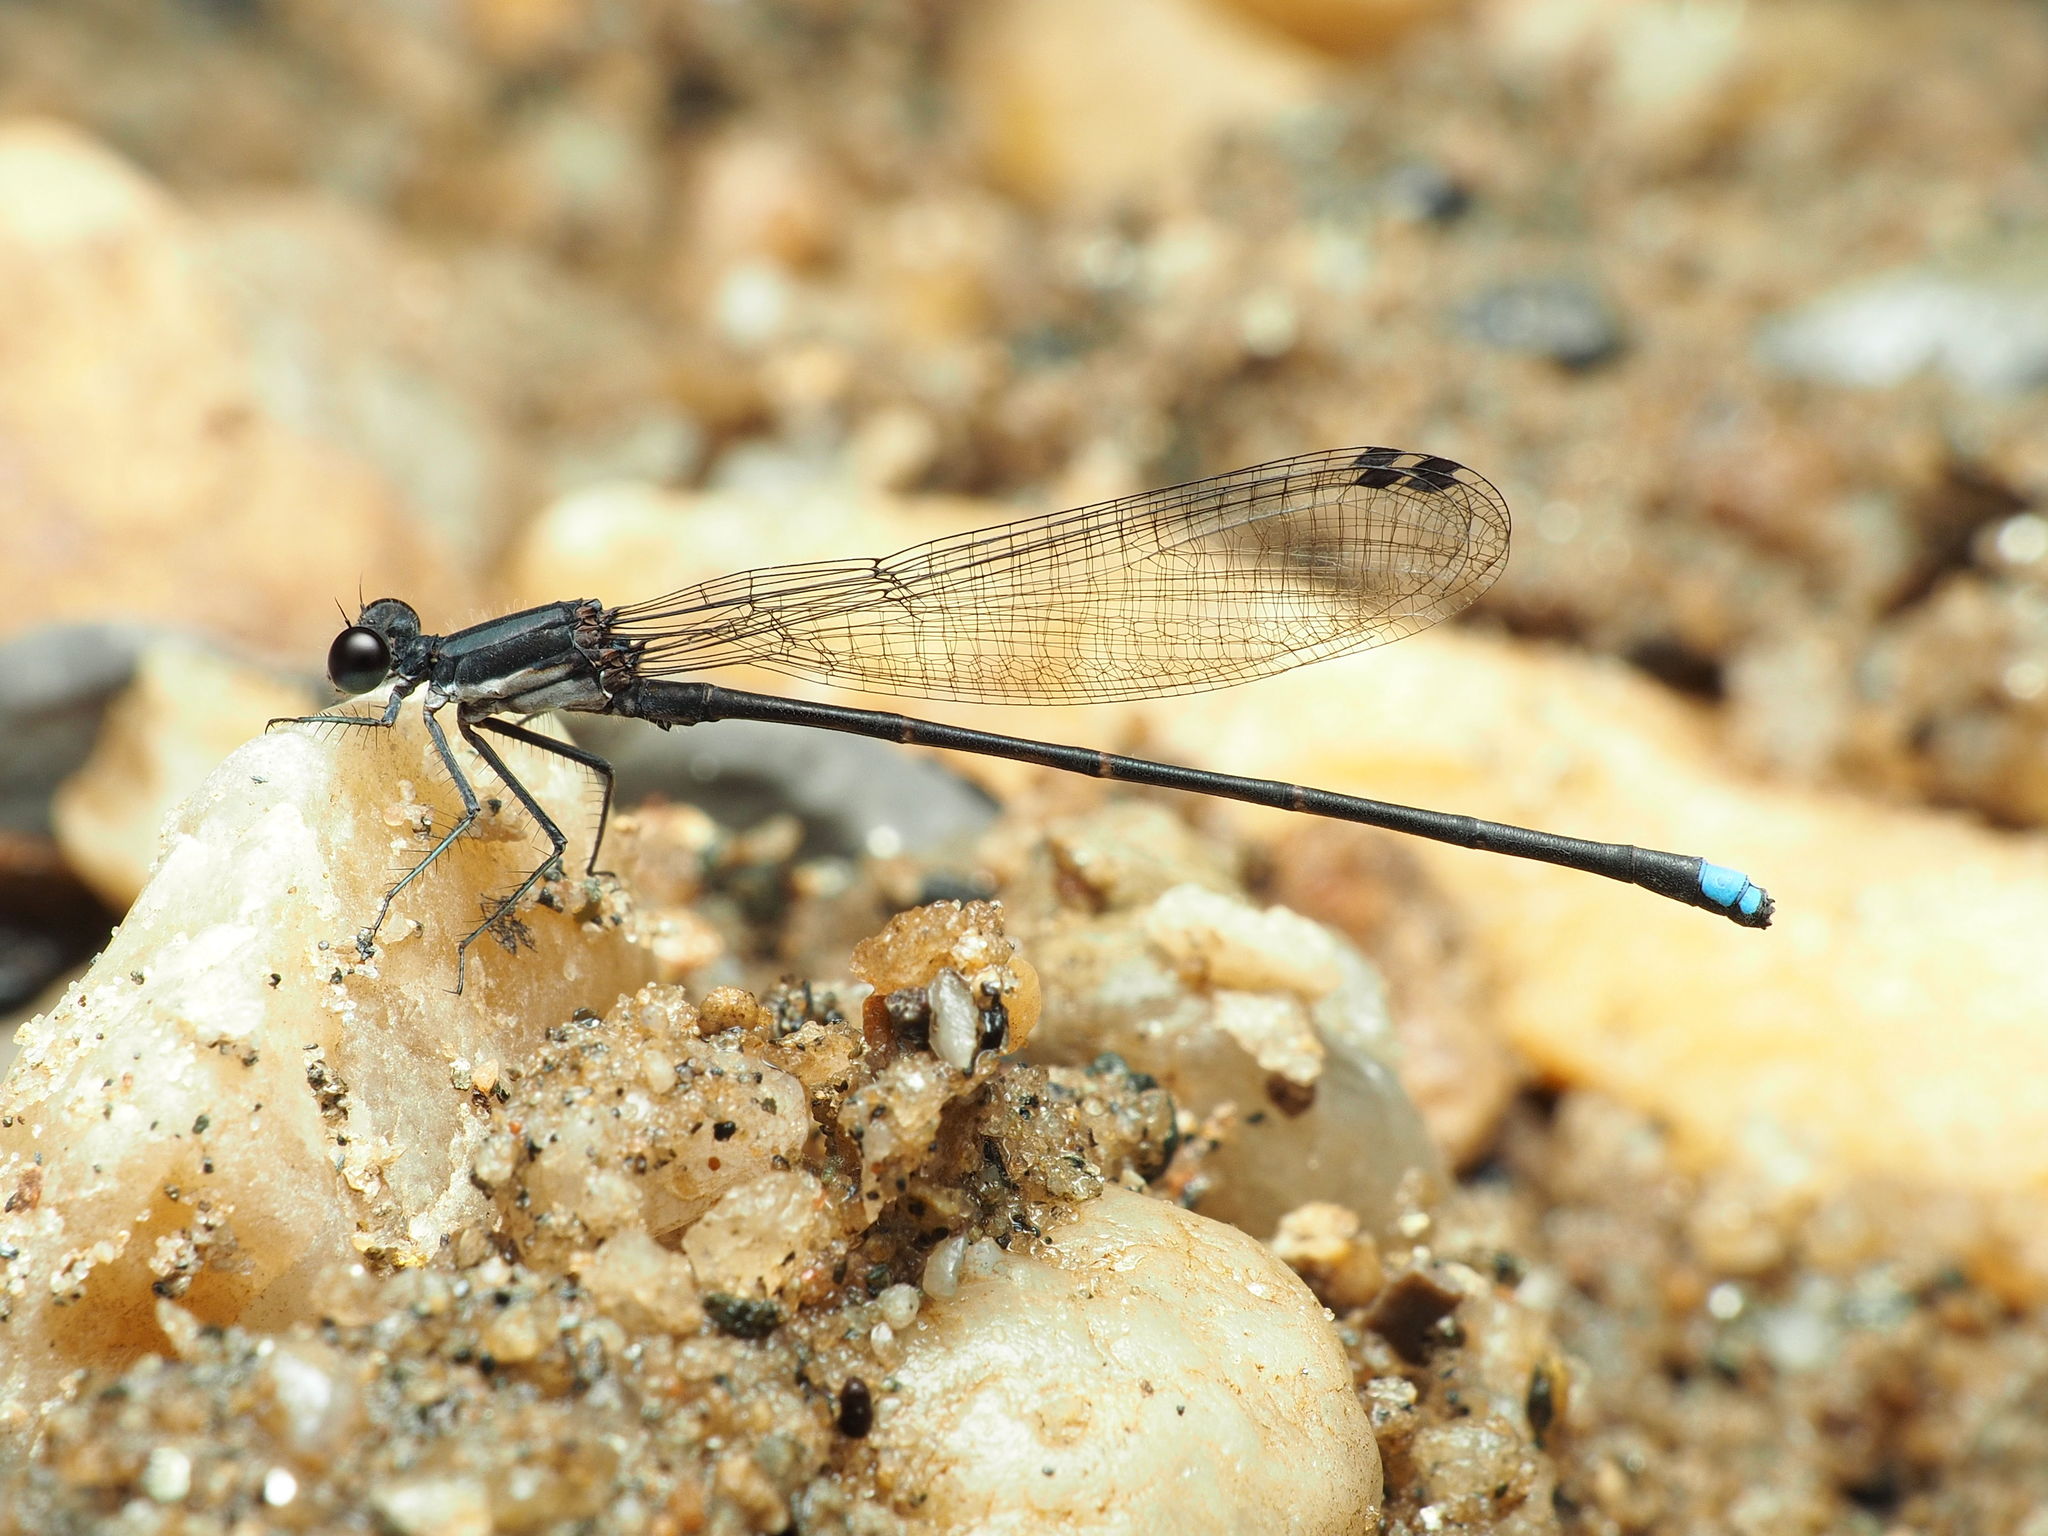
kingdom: Animalia
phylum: Arthropoda
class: Insecta
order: Odonata
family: Coenagrionidae
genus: Argia
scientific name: Argia tibialis
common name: Blue-tipped dancer
